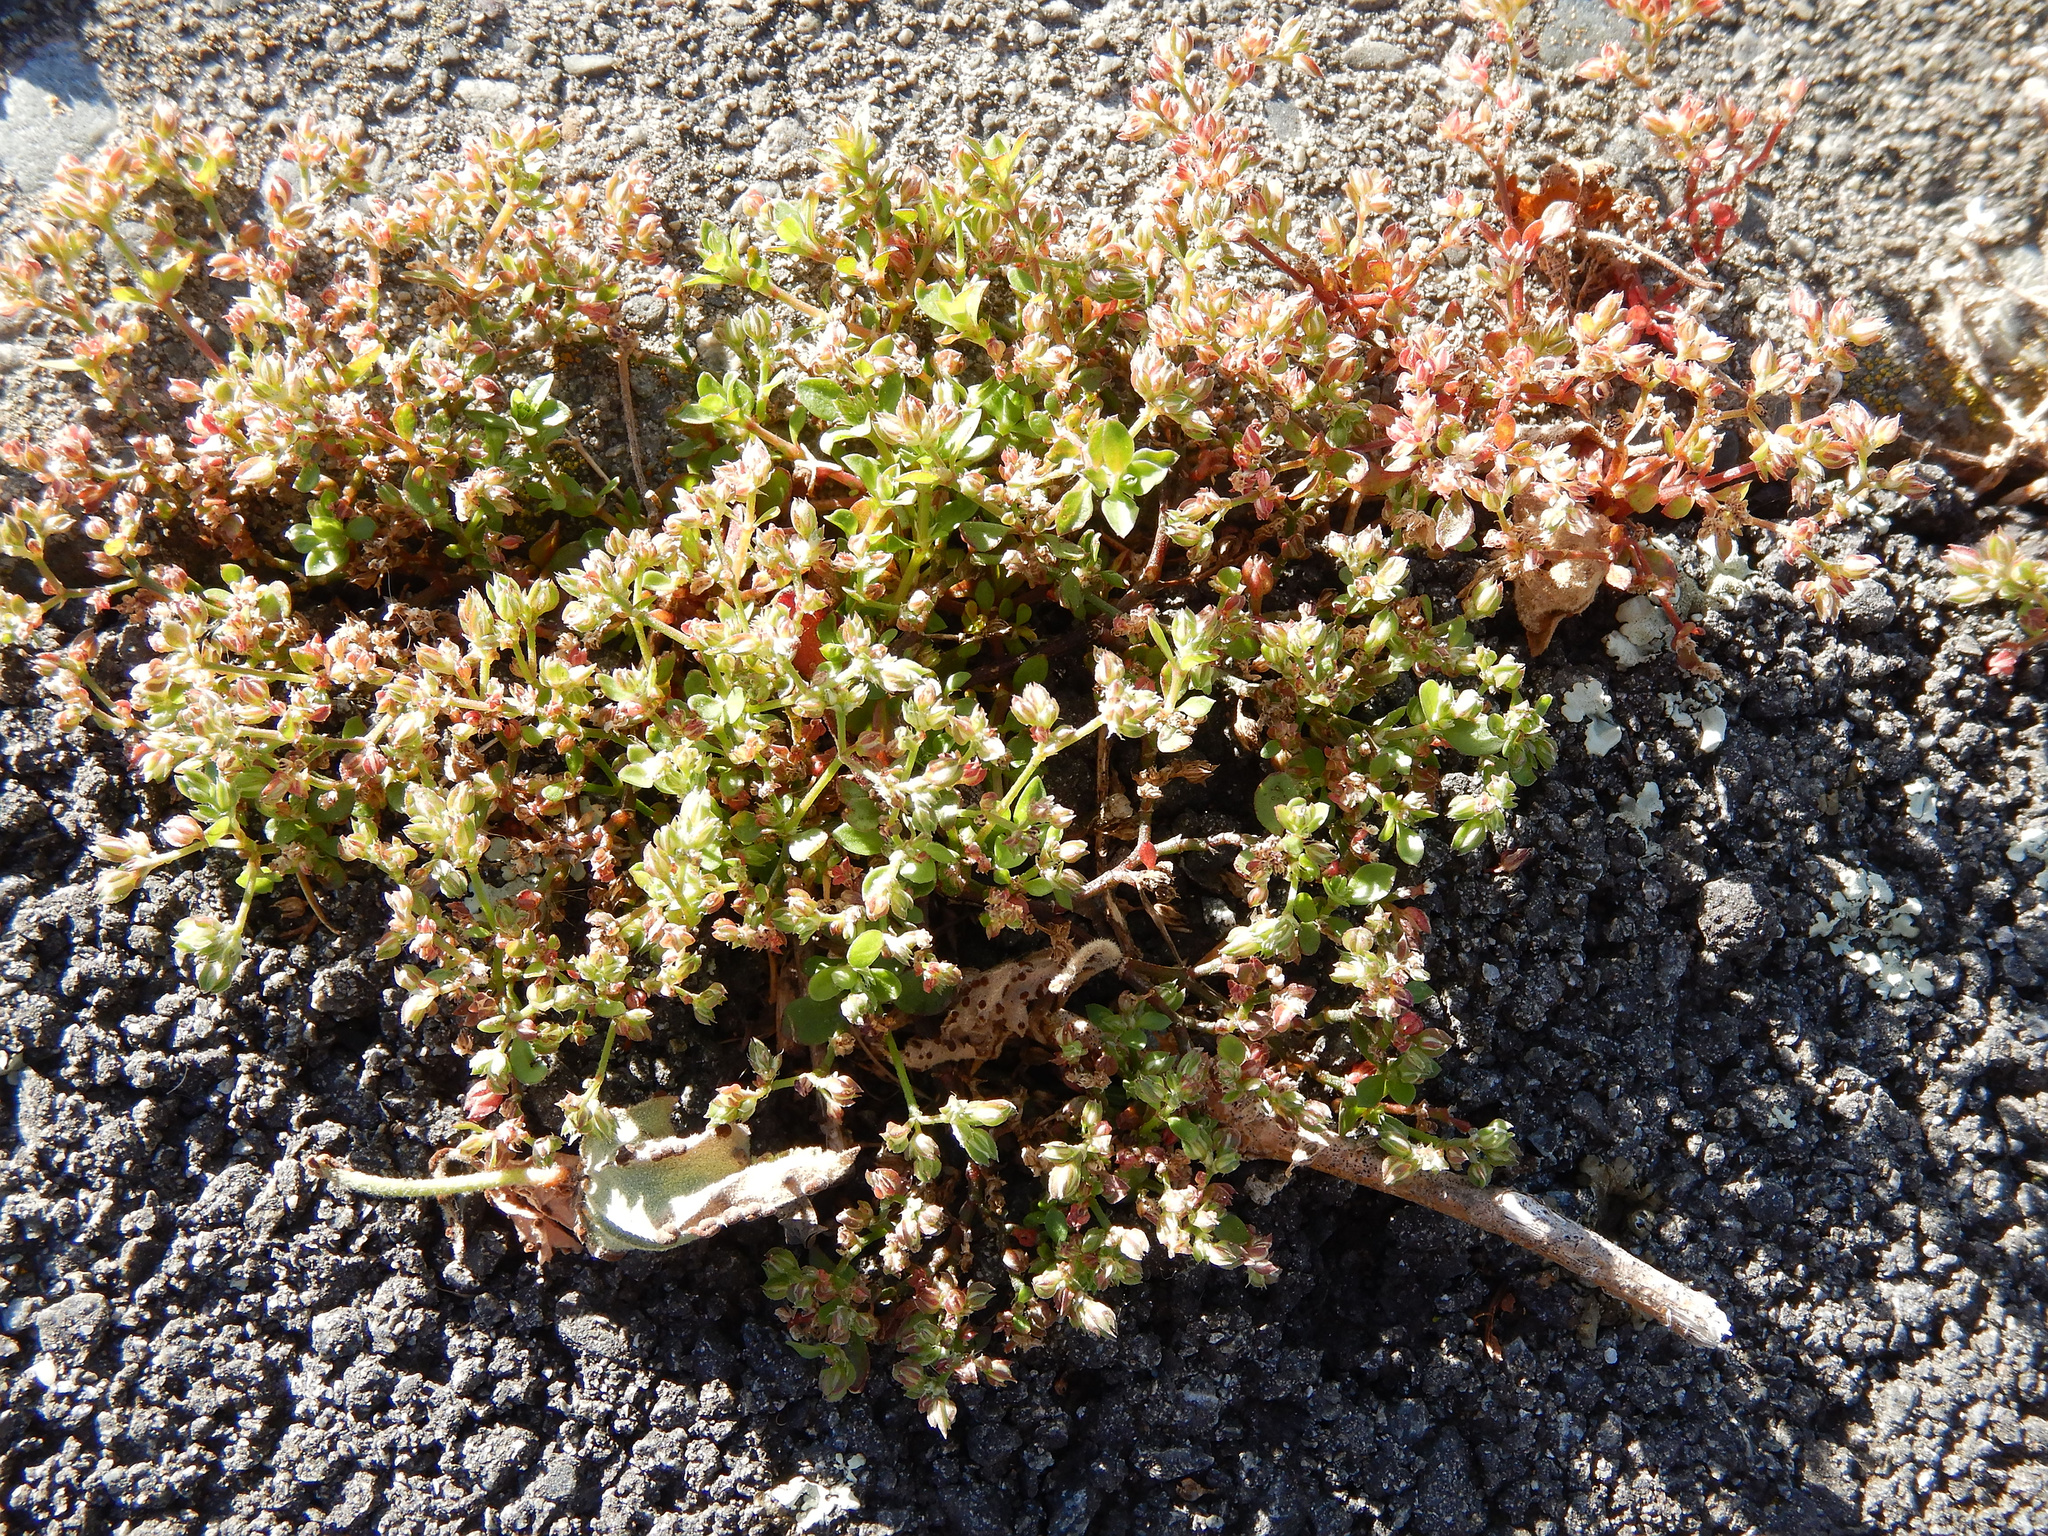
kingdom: Plantae
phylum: Tracheophyta
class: Magnoliopsida
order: Caryophyllales
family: Caryophyllaceae
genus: Polycarpon
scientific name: Polycarpon tetraphyllum
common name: Four-leaved all-seed
